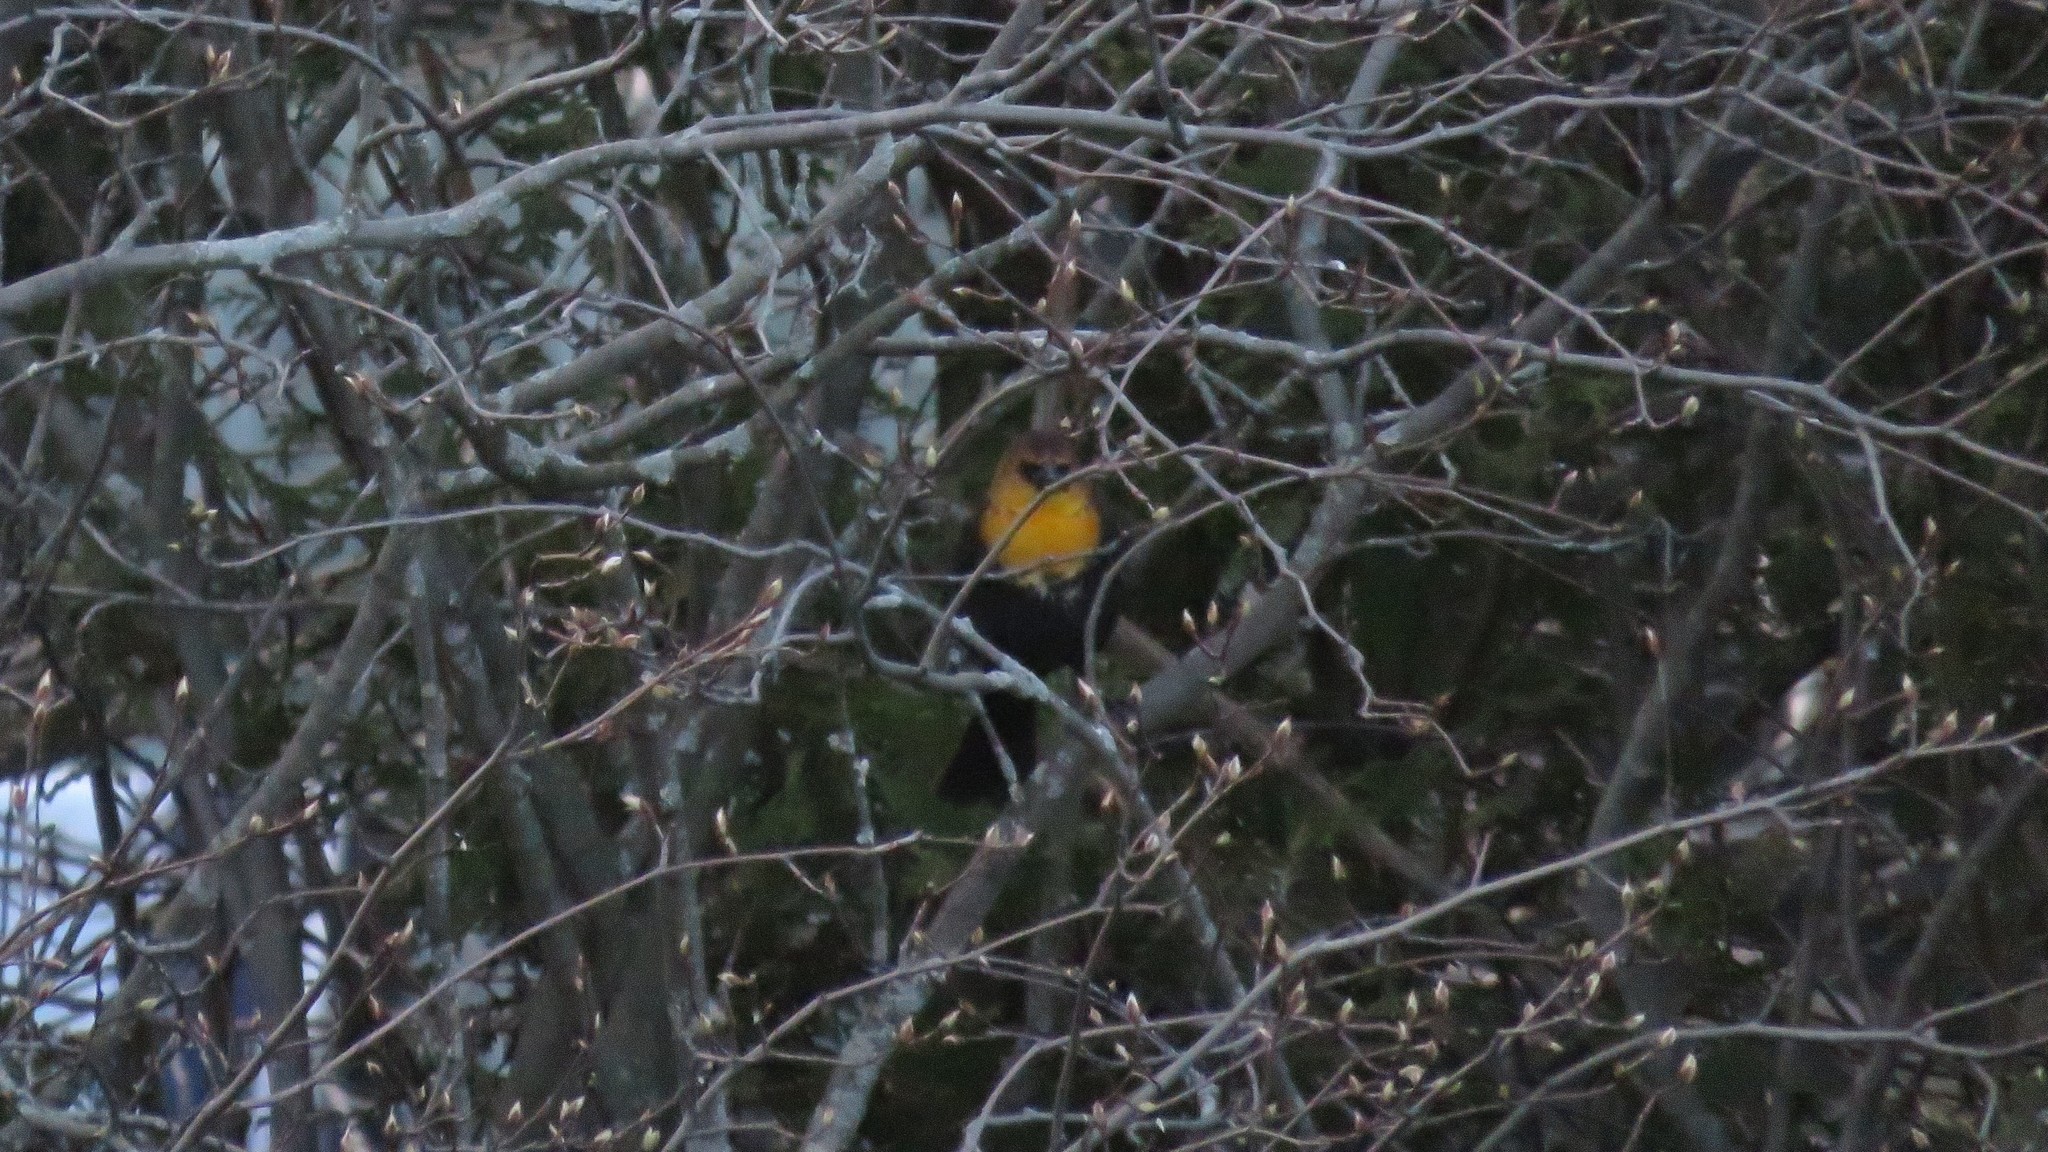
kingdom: Animalia
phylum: Chordata
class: Aves
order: Passeriformes
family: Icteridae
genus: Xanthocephalus
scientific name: Xanthocephalus xanthocephalus
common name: Yellow-headed blackbird
